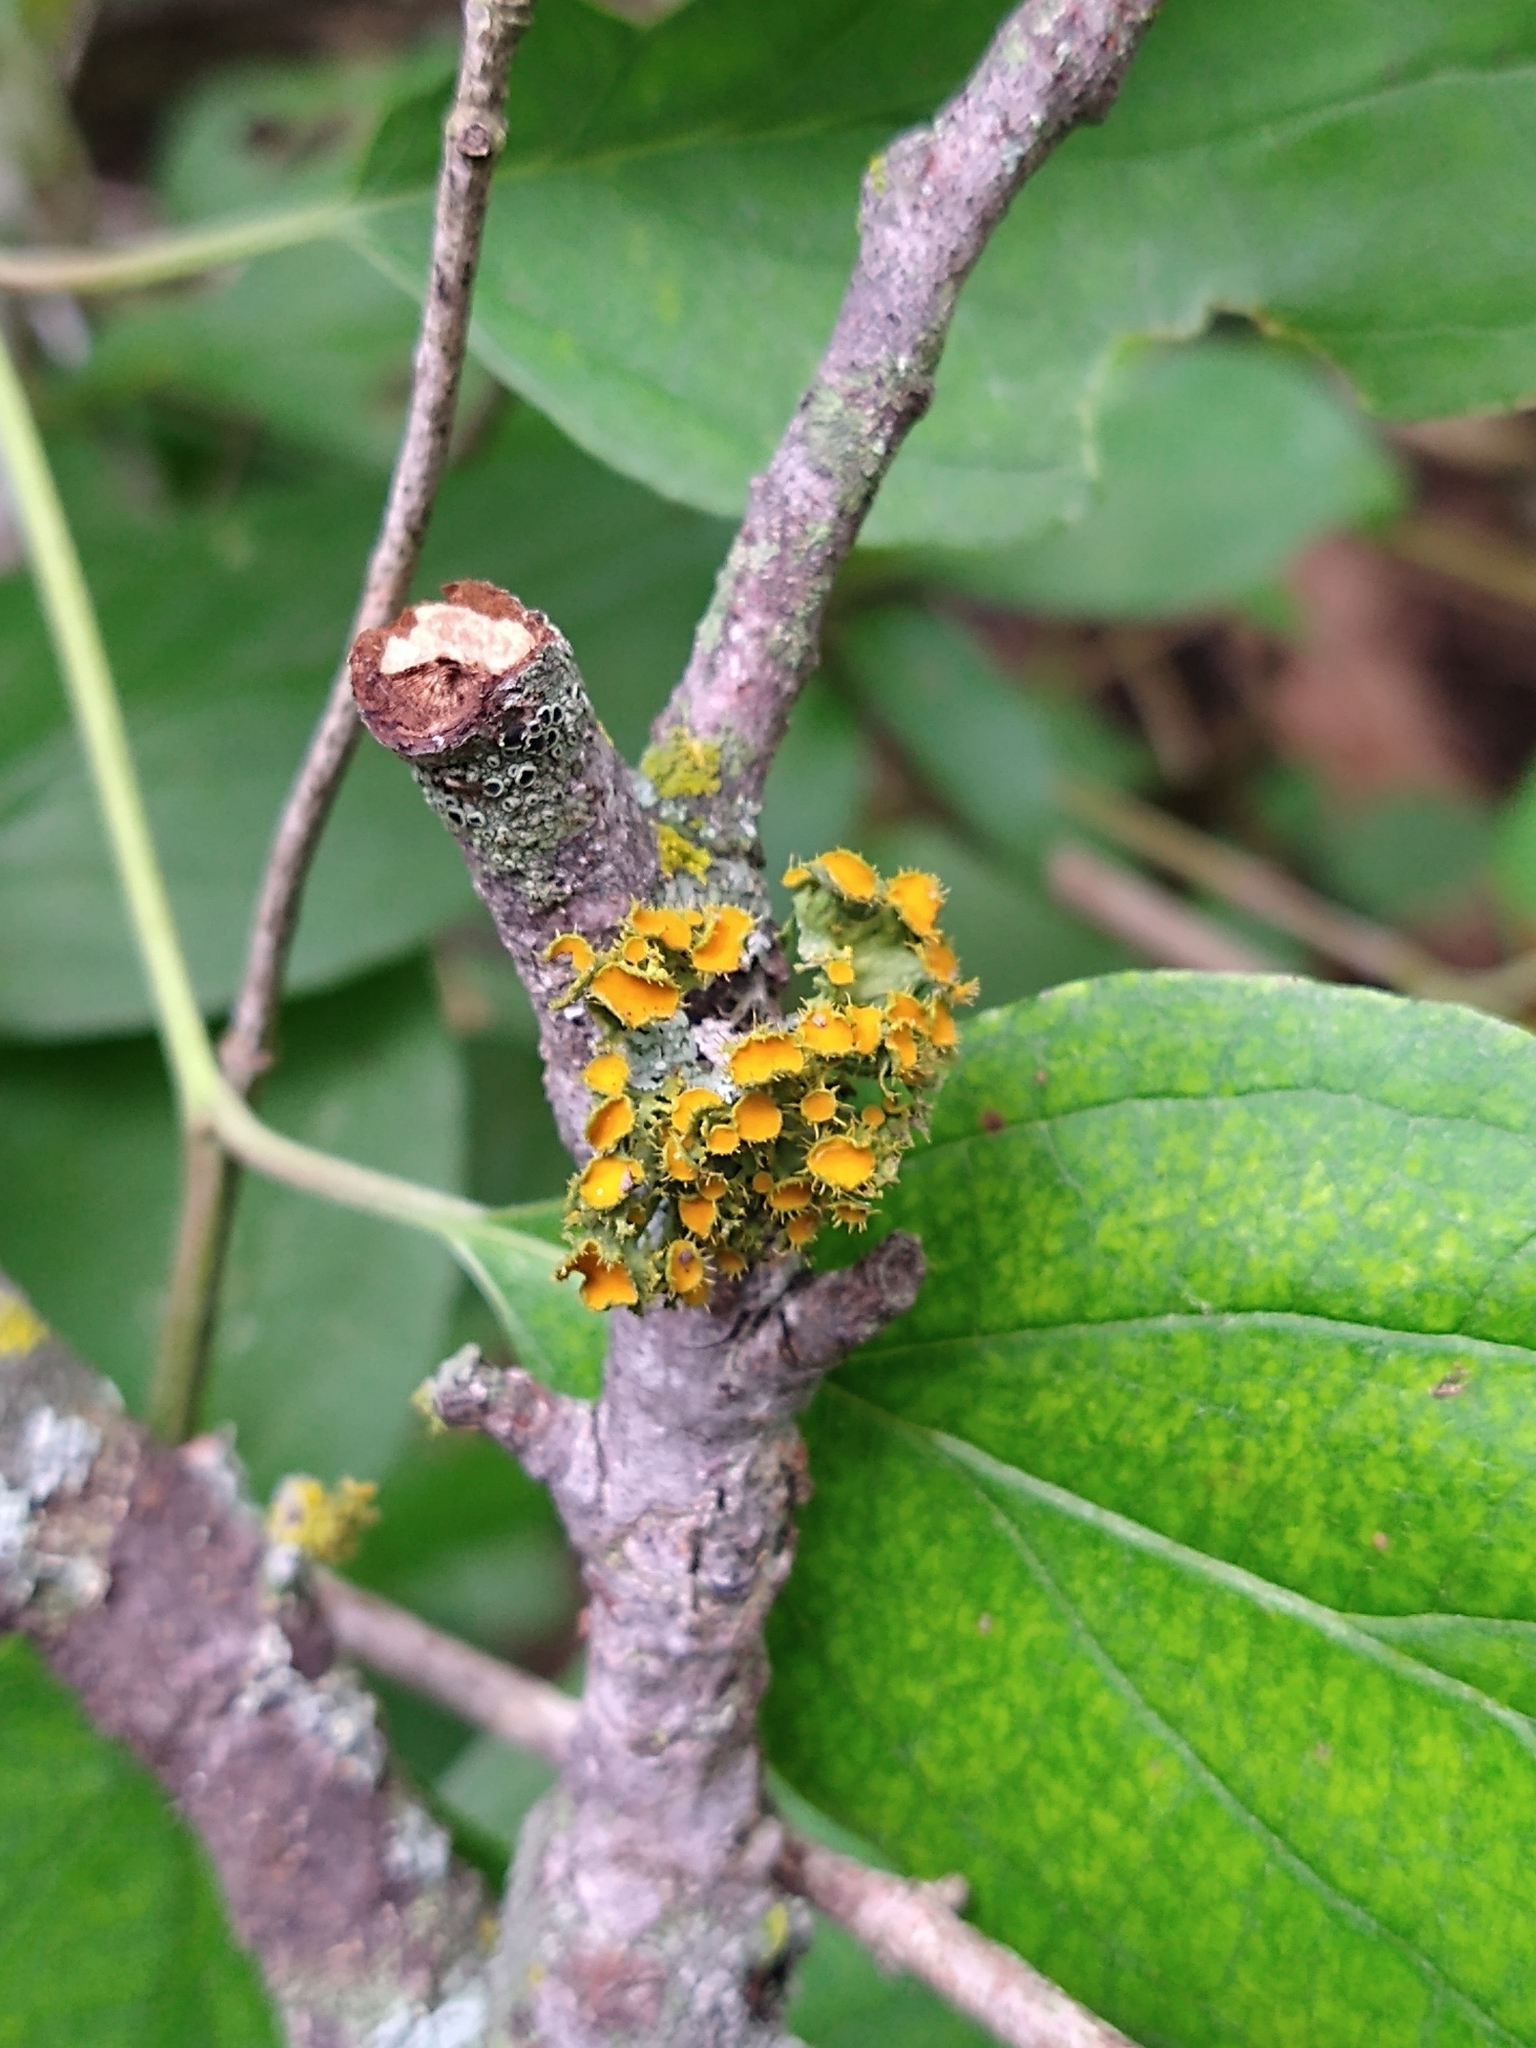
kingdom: Fungi
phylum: Ascomycota
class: Lecanoromycetes
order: Teloschistales
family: Teloschistaceae
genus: Niorma
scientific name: Niorma chrysophthalma
